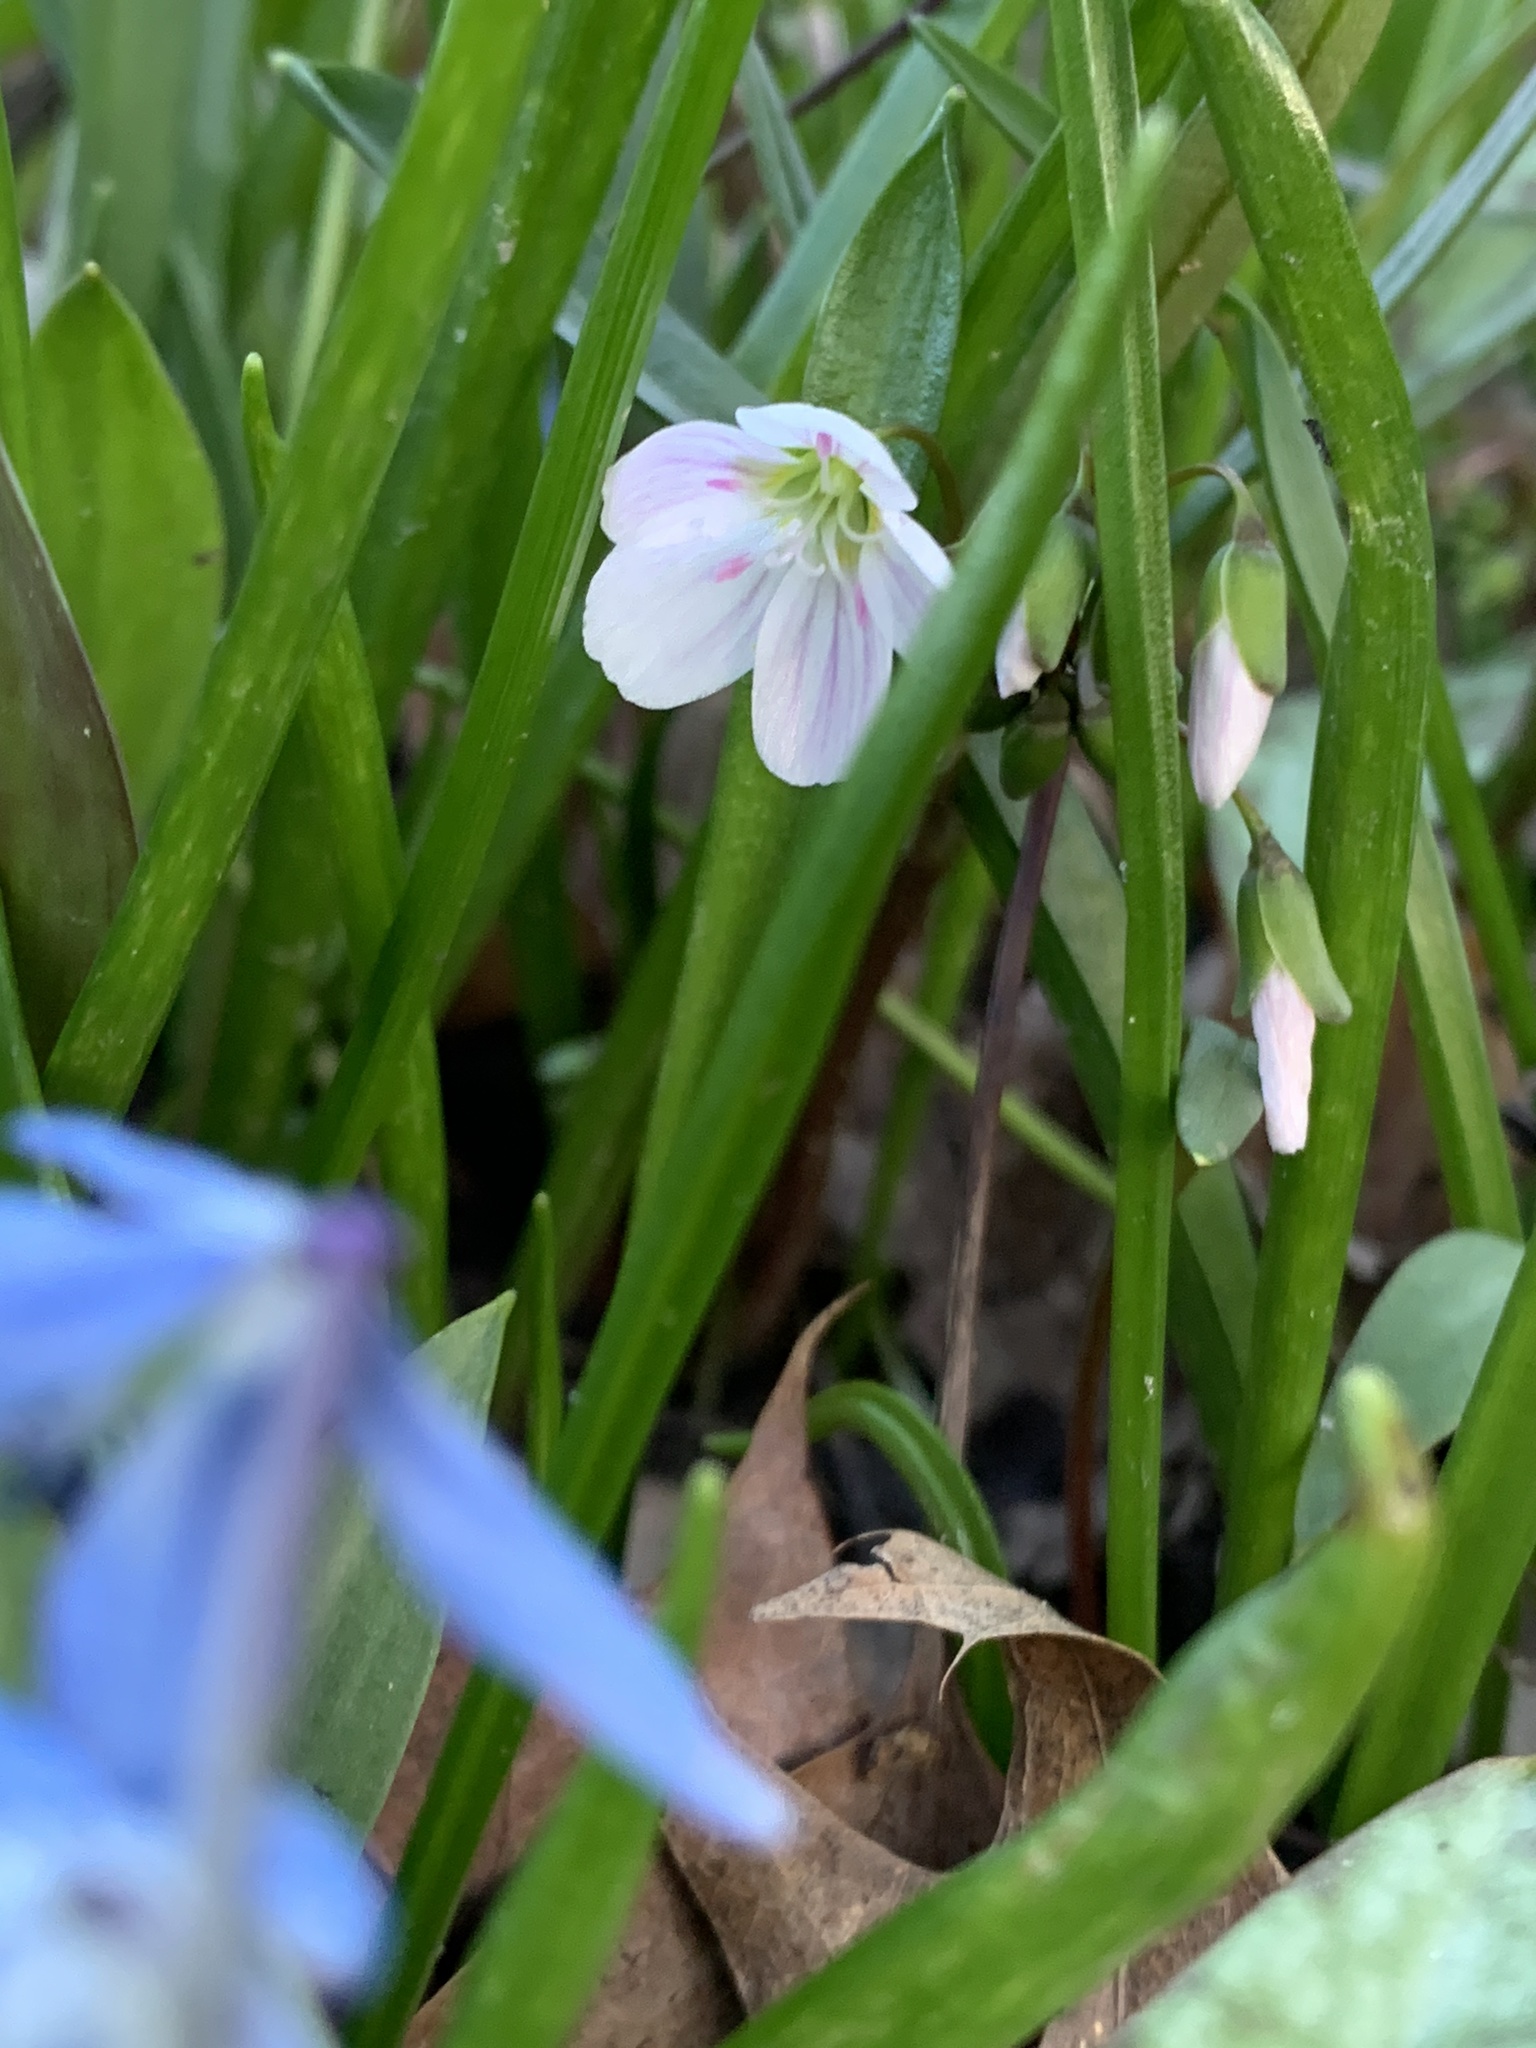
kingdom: Plantae
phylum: Tracheophyta
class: Magnoliopsida
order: Caryophyllales
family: Montiaceae
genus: Claytonia
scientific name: Claytonia virginica
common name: Virginia springbeauty
